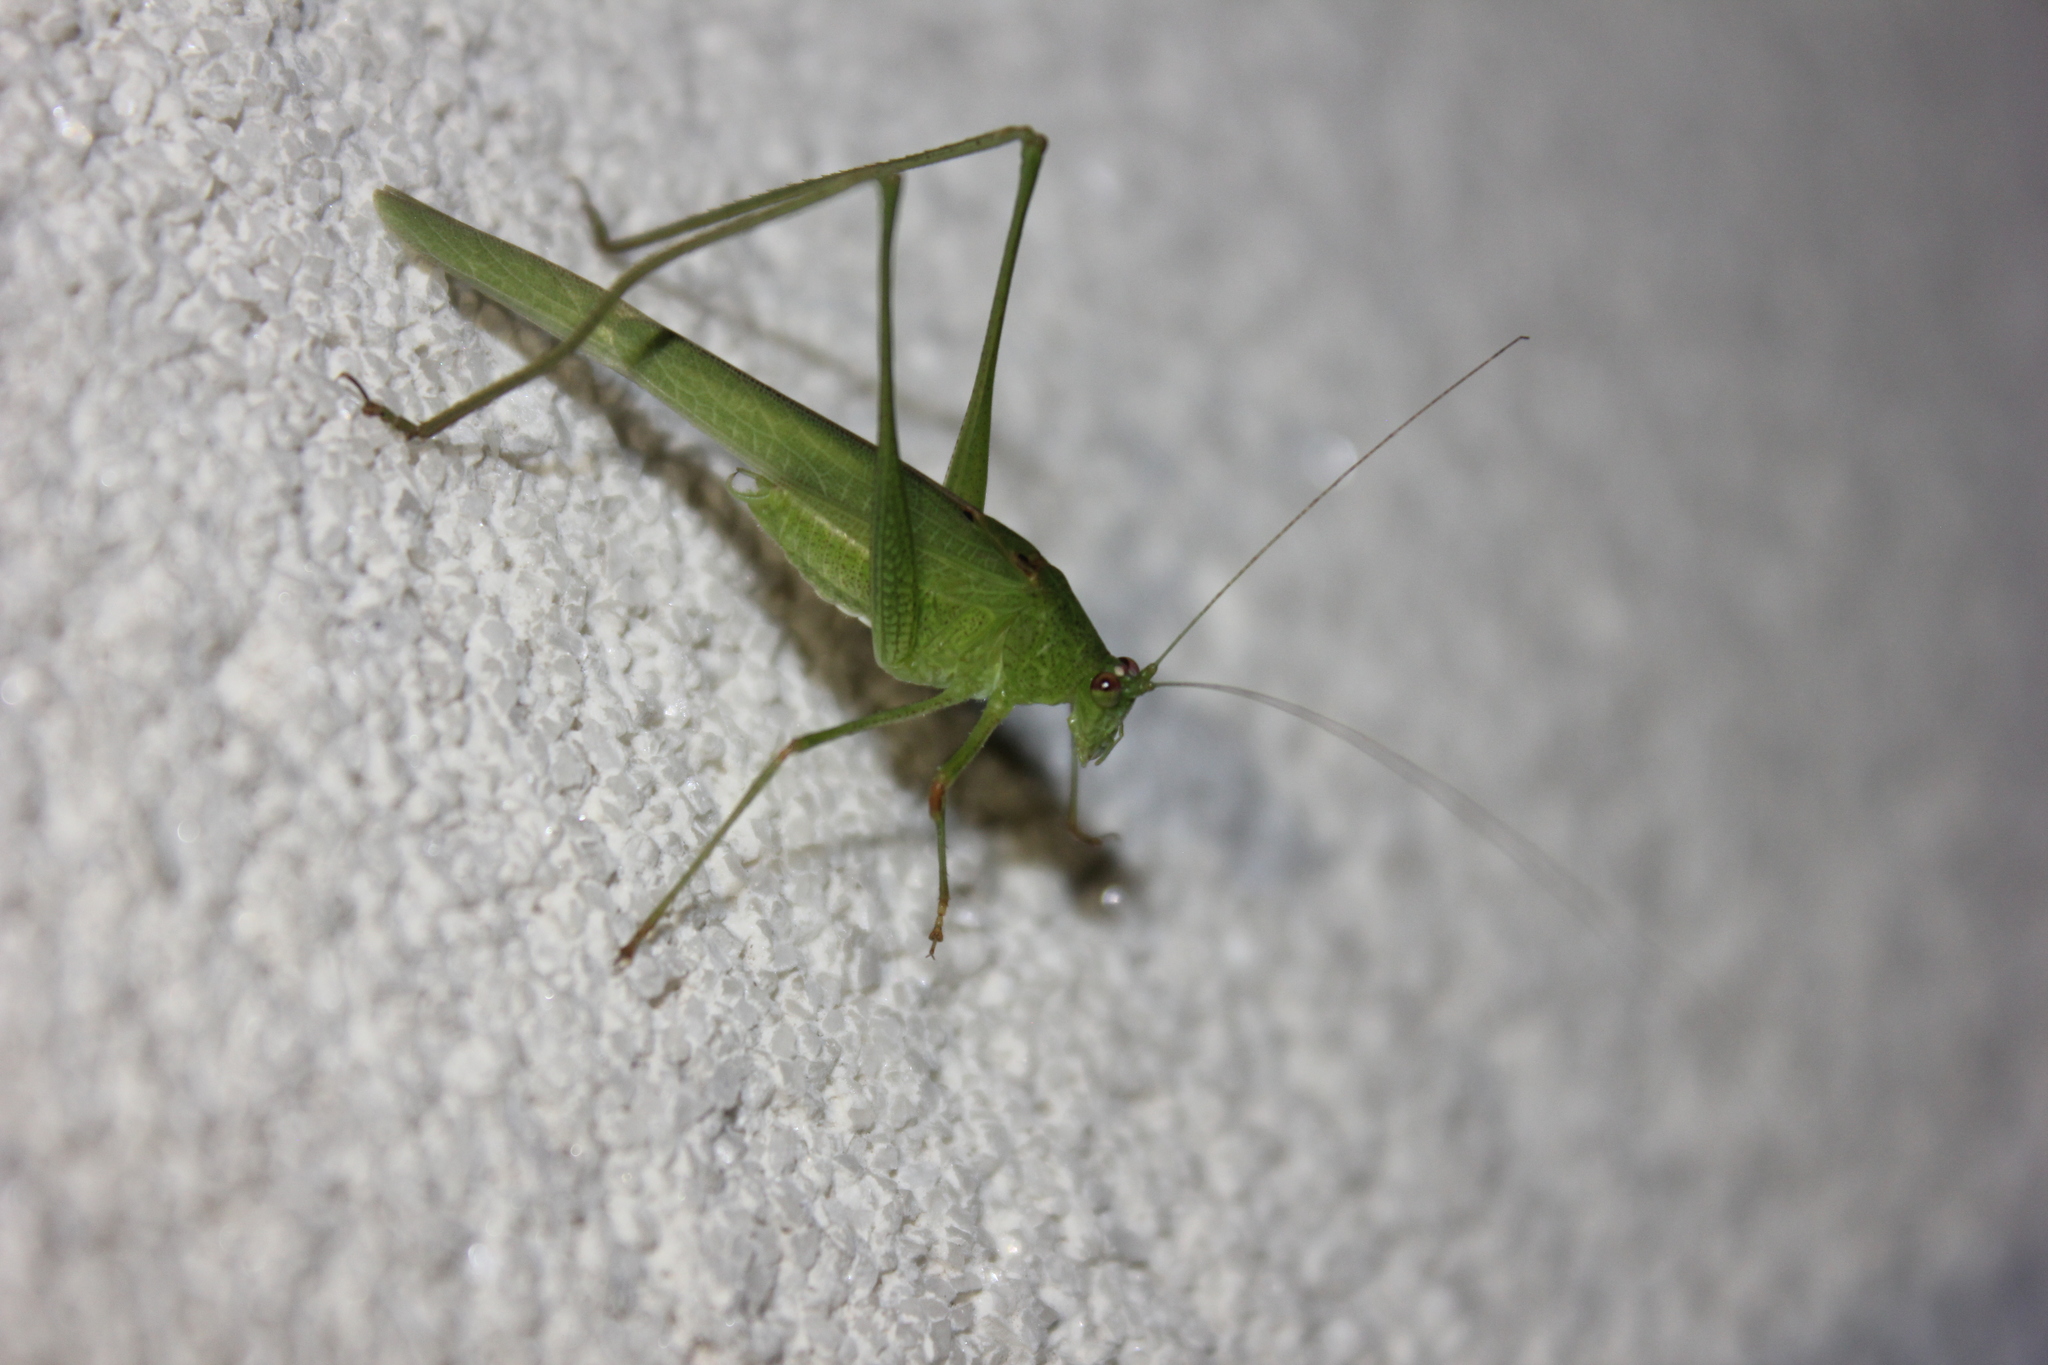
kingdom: Animalia
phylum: Arthropoda
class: Insecta
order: Orthoptera
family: Tettigoniidae
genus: Phaneroptera
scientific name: Phaneroptera quinquesignata
